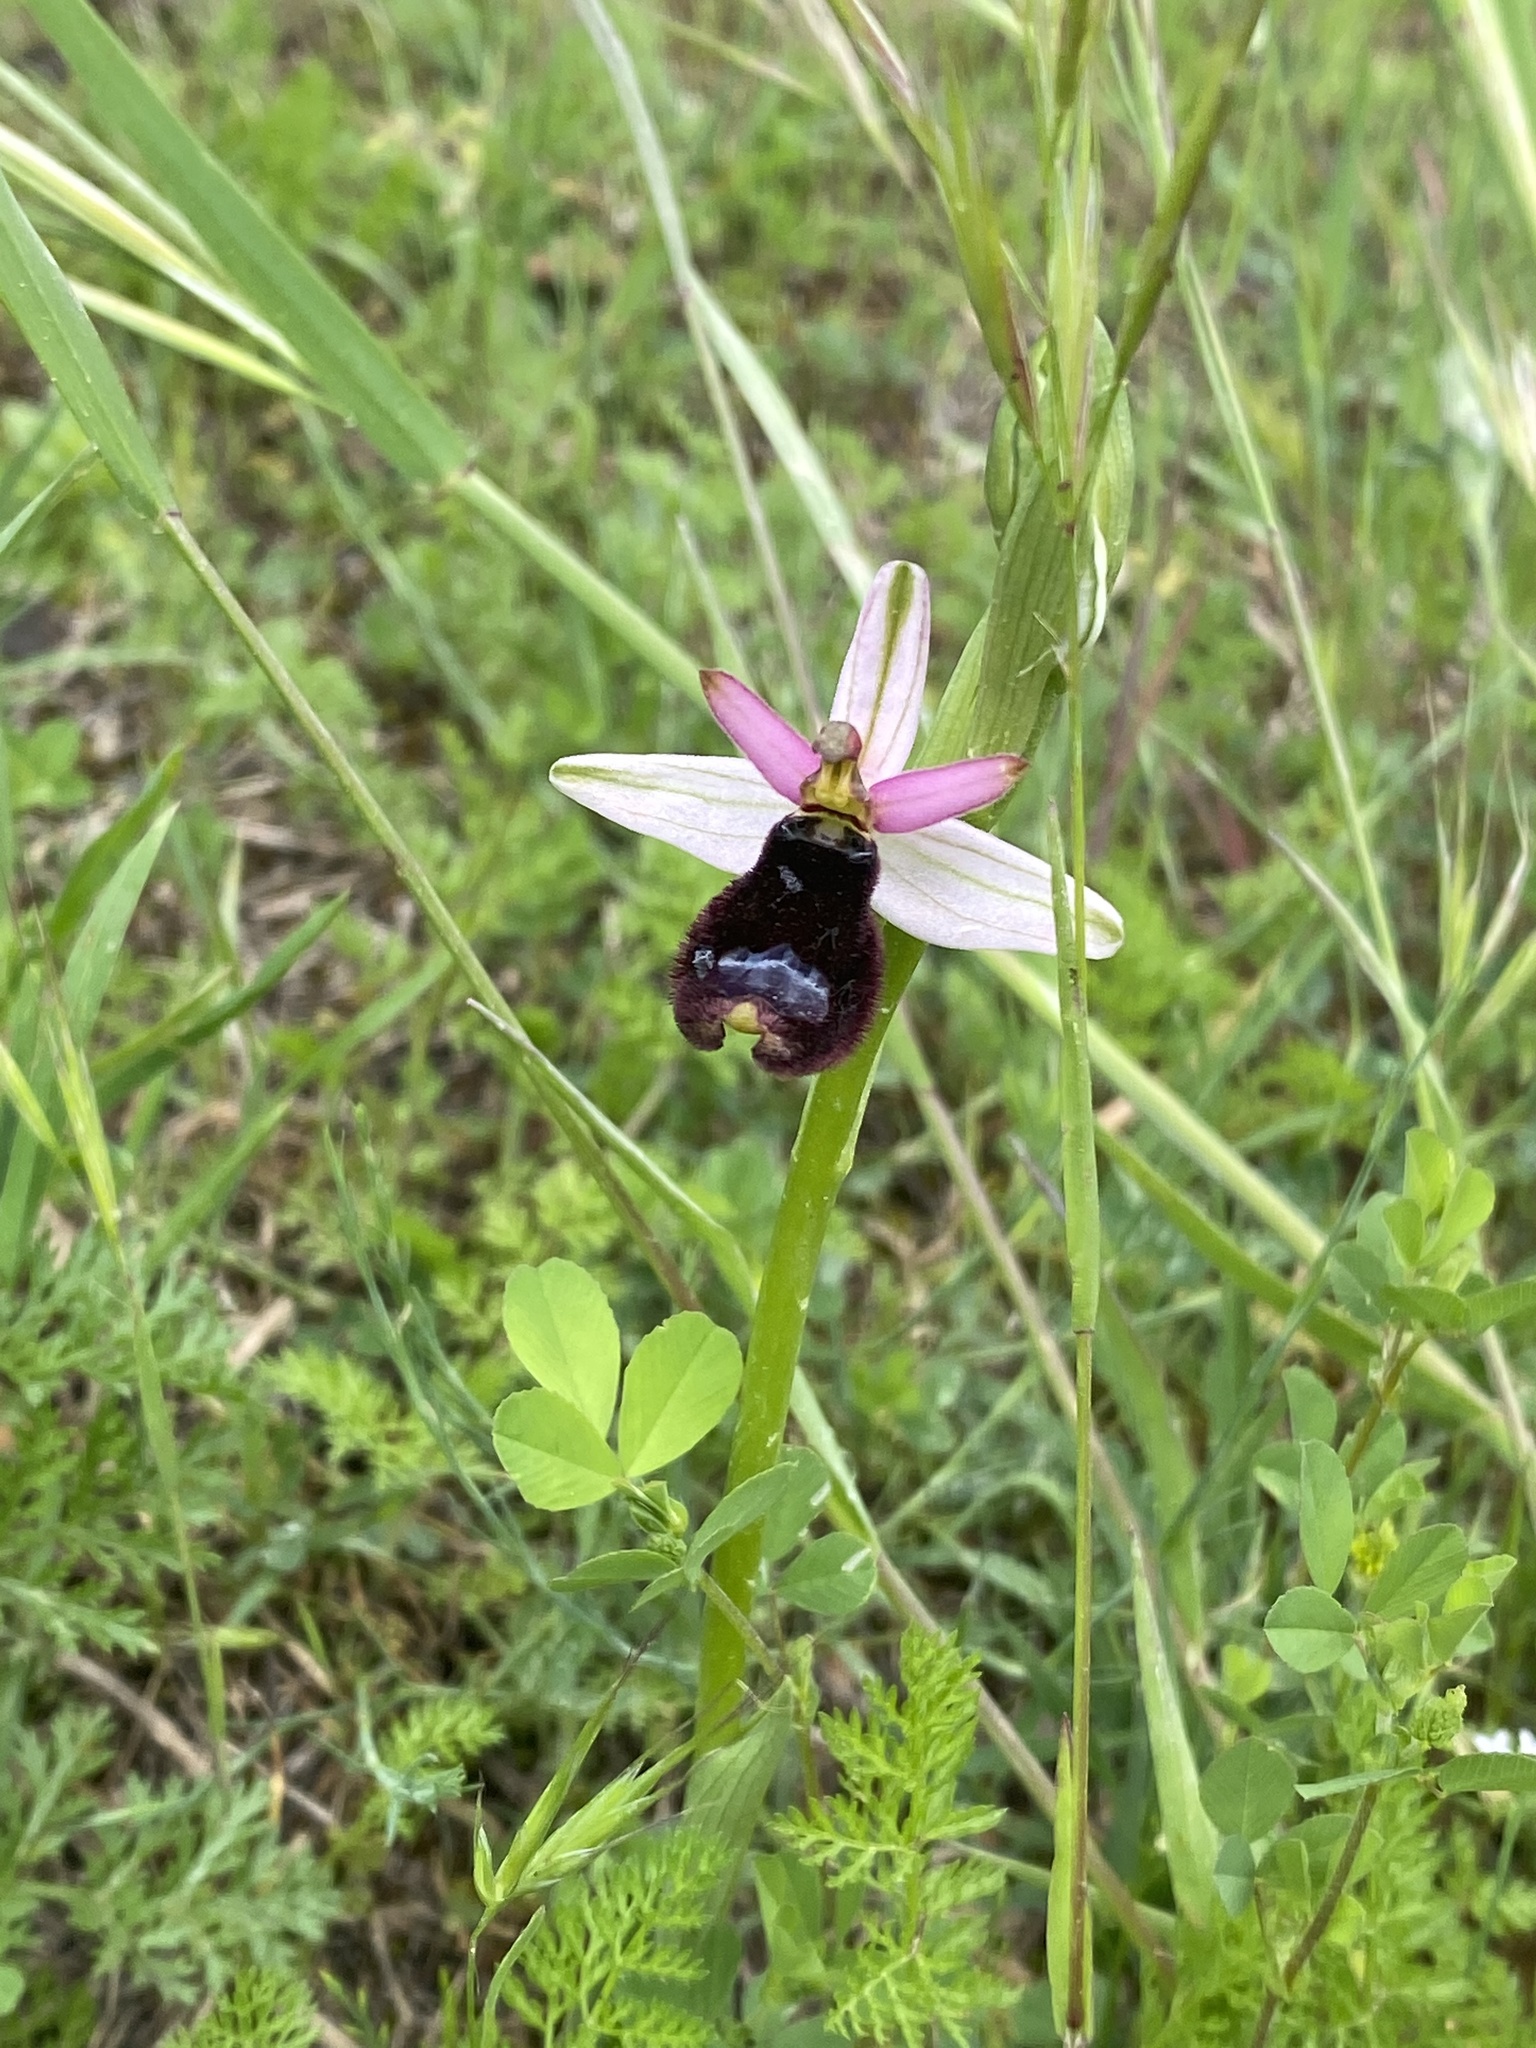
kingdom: Plantae
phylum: Tracheophyta
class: Liliopsida
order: Asparagales
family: Orchidaceae
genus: Ophrys
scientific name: Ophrys bertolonii
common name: Bertoloni's bee orchid
